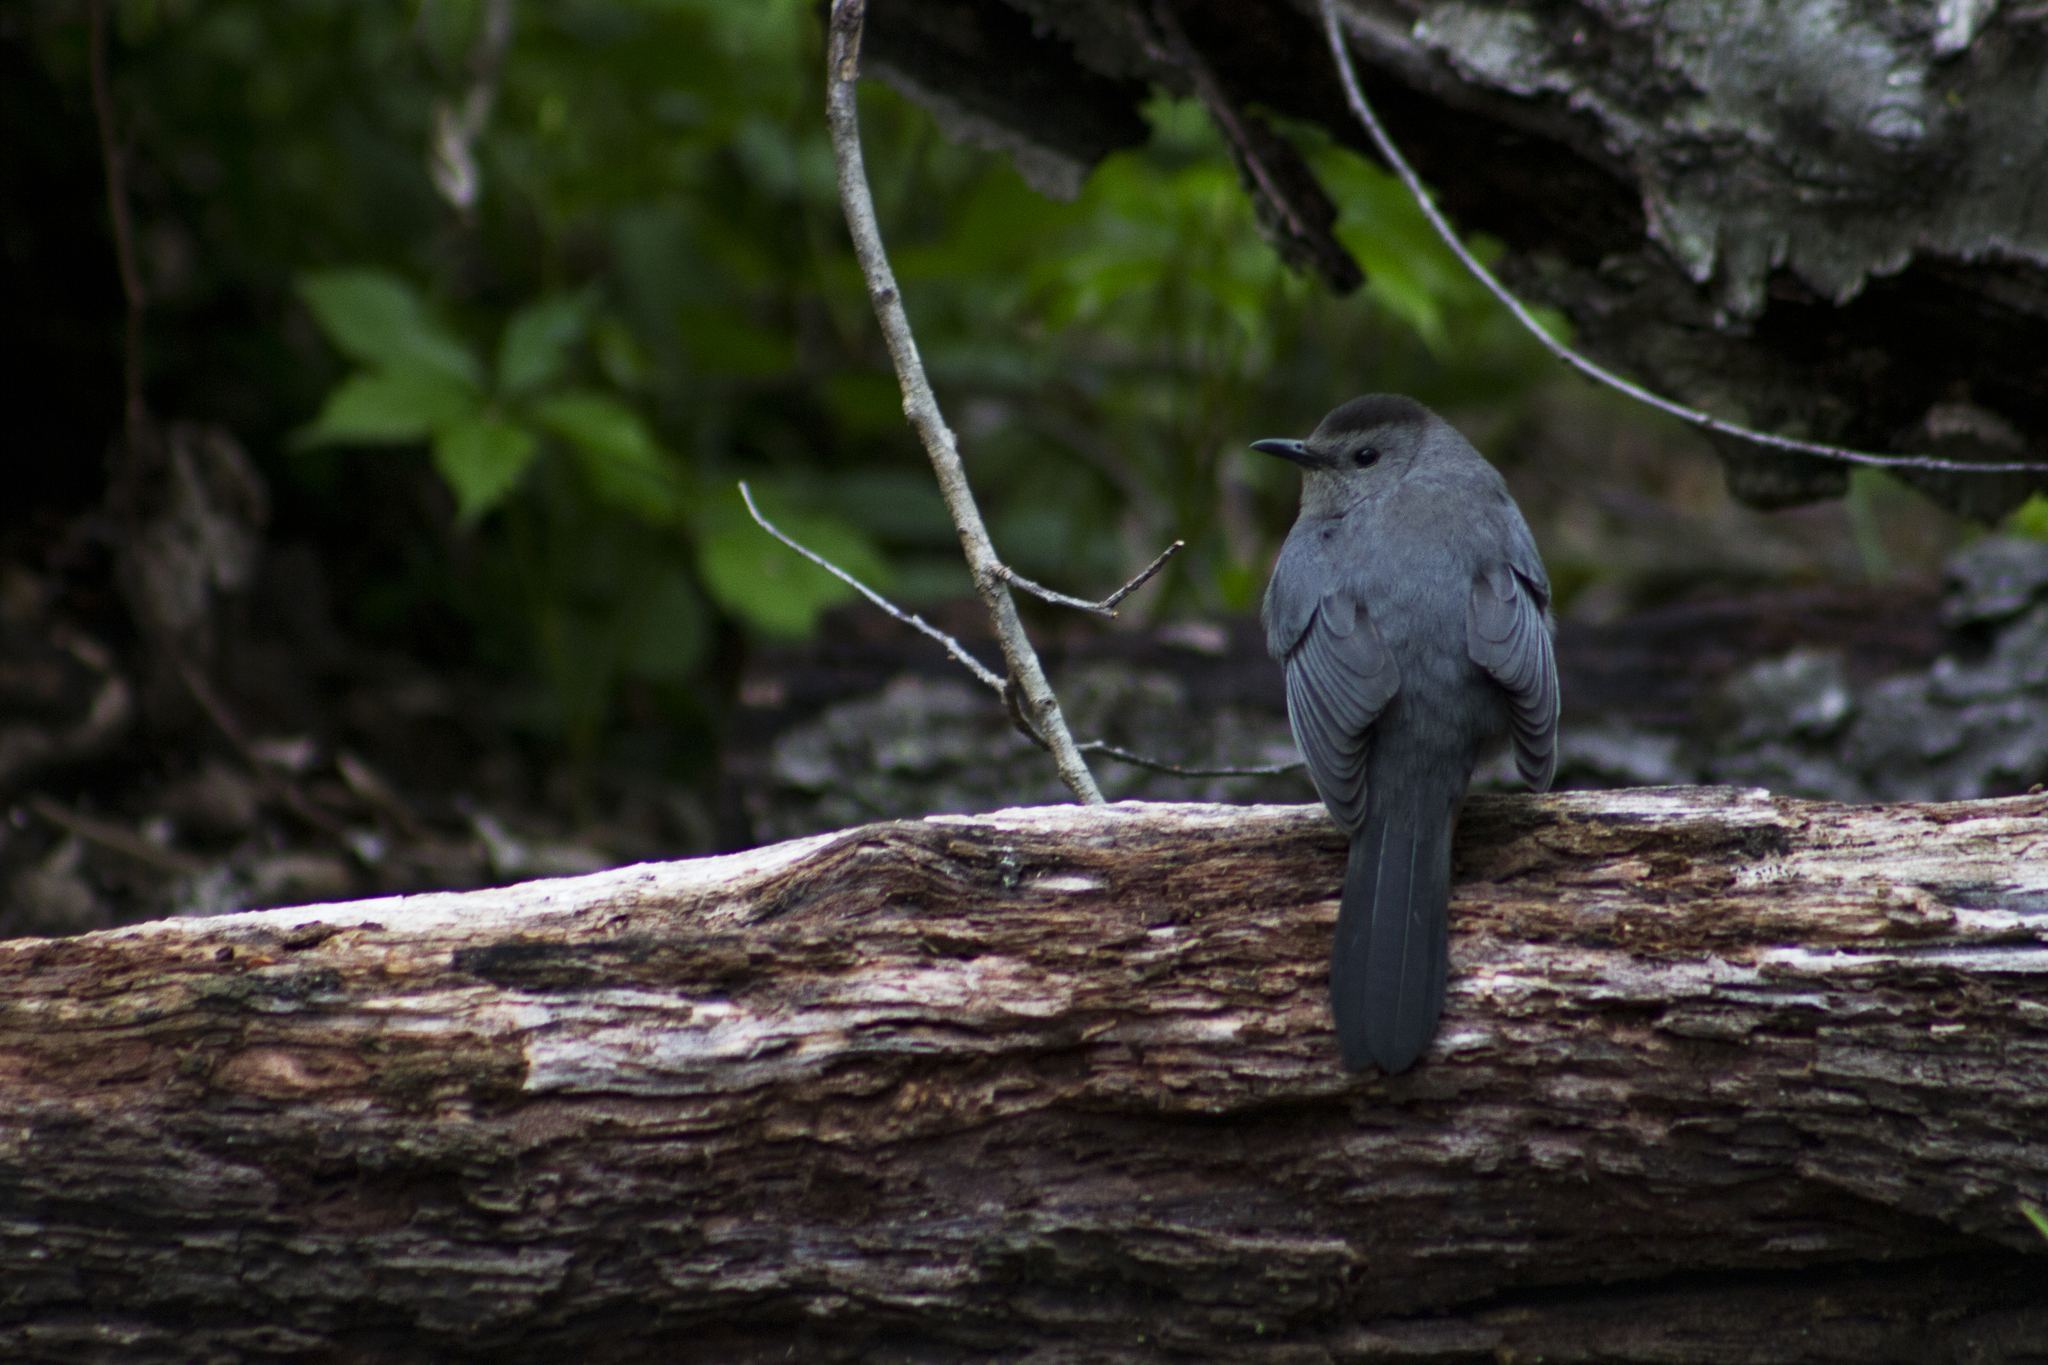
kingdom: Animalia
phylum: Chordata
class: Aves
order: Passeriformes
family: Mimidae
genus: Dumetella
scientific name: Dumetella carolinensis
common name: Gray catbird
